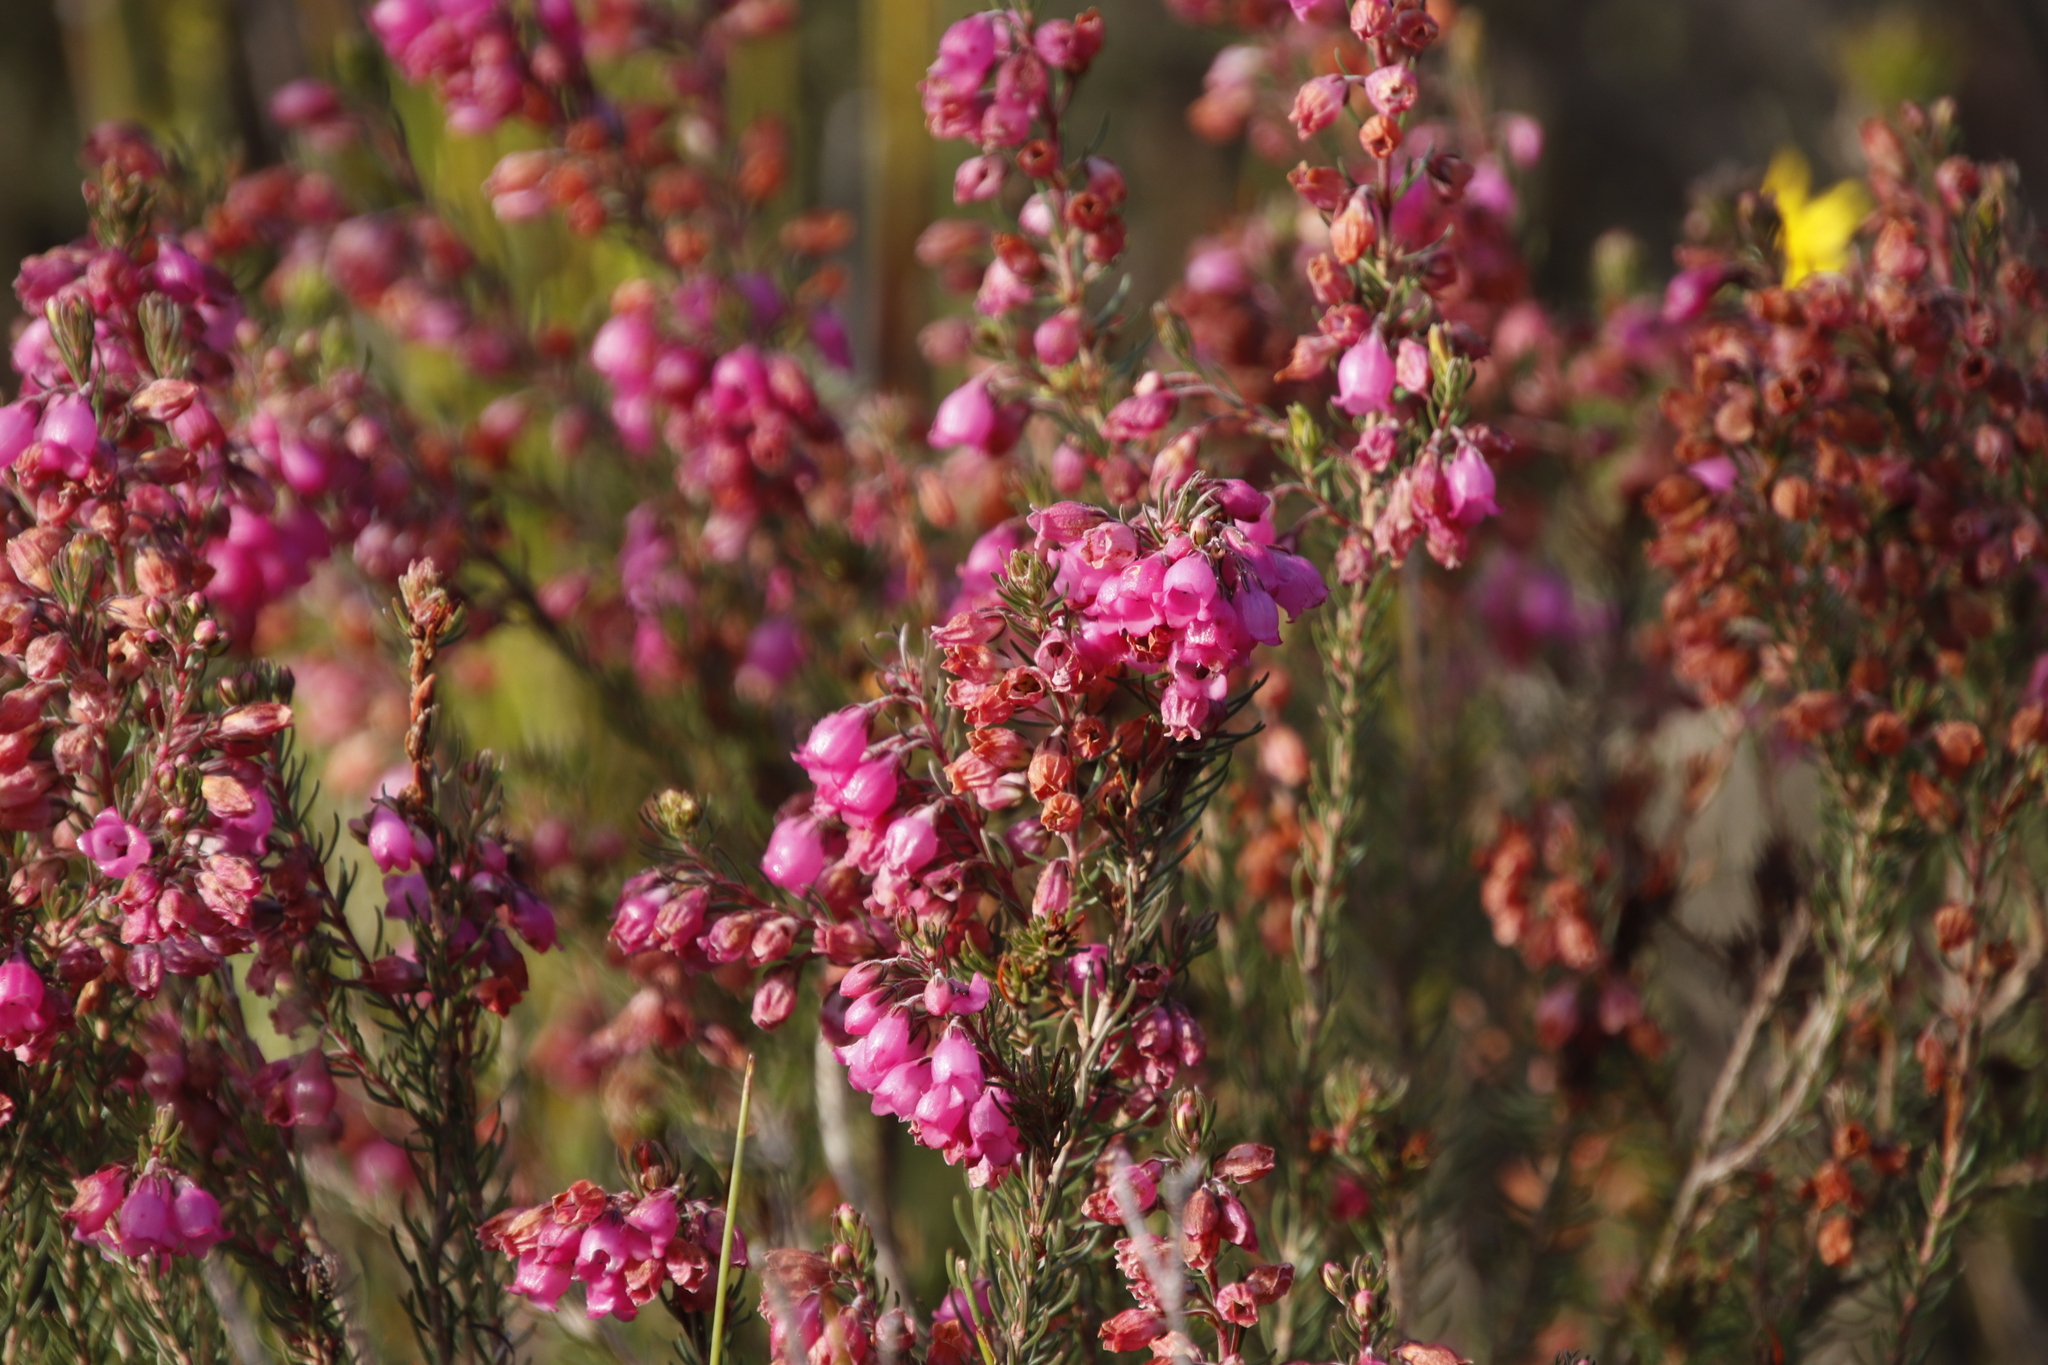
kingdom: Plantae
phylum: Tracheophyta
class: Magnoliopsida
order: Ericales
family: Ericaceae
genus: Erica
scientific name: Erica viscaria
